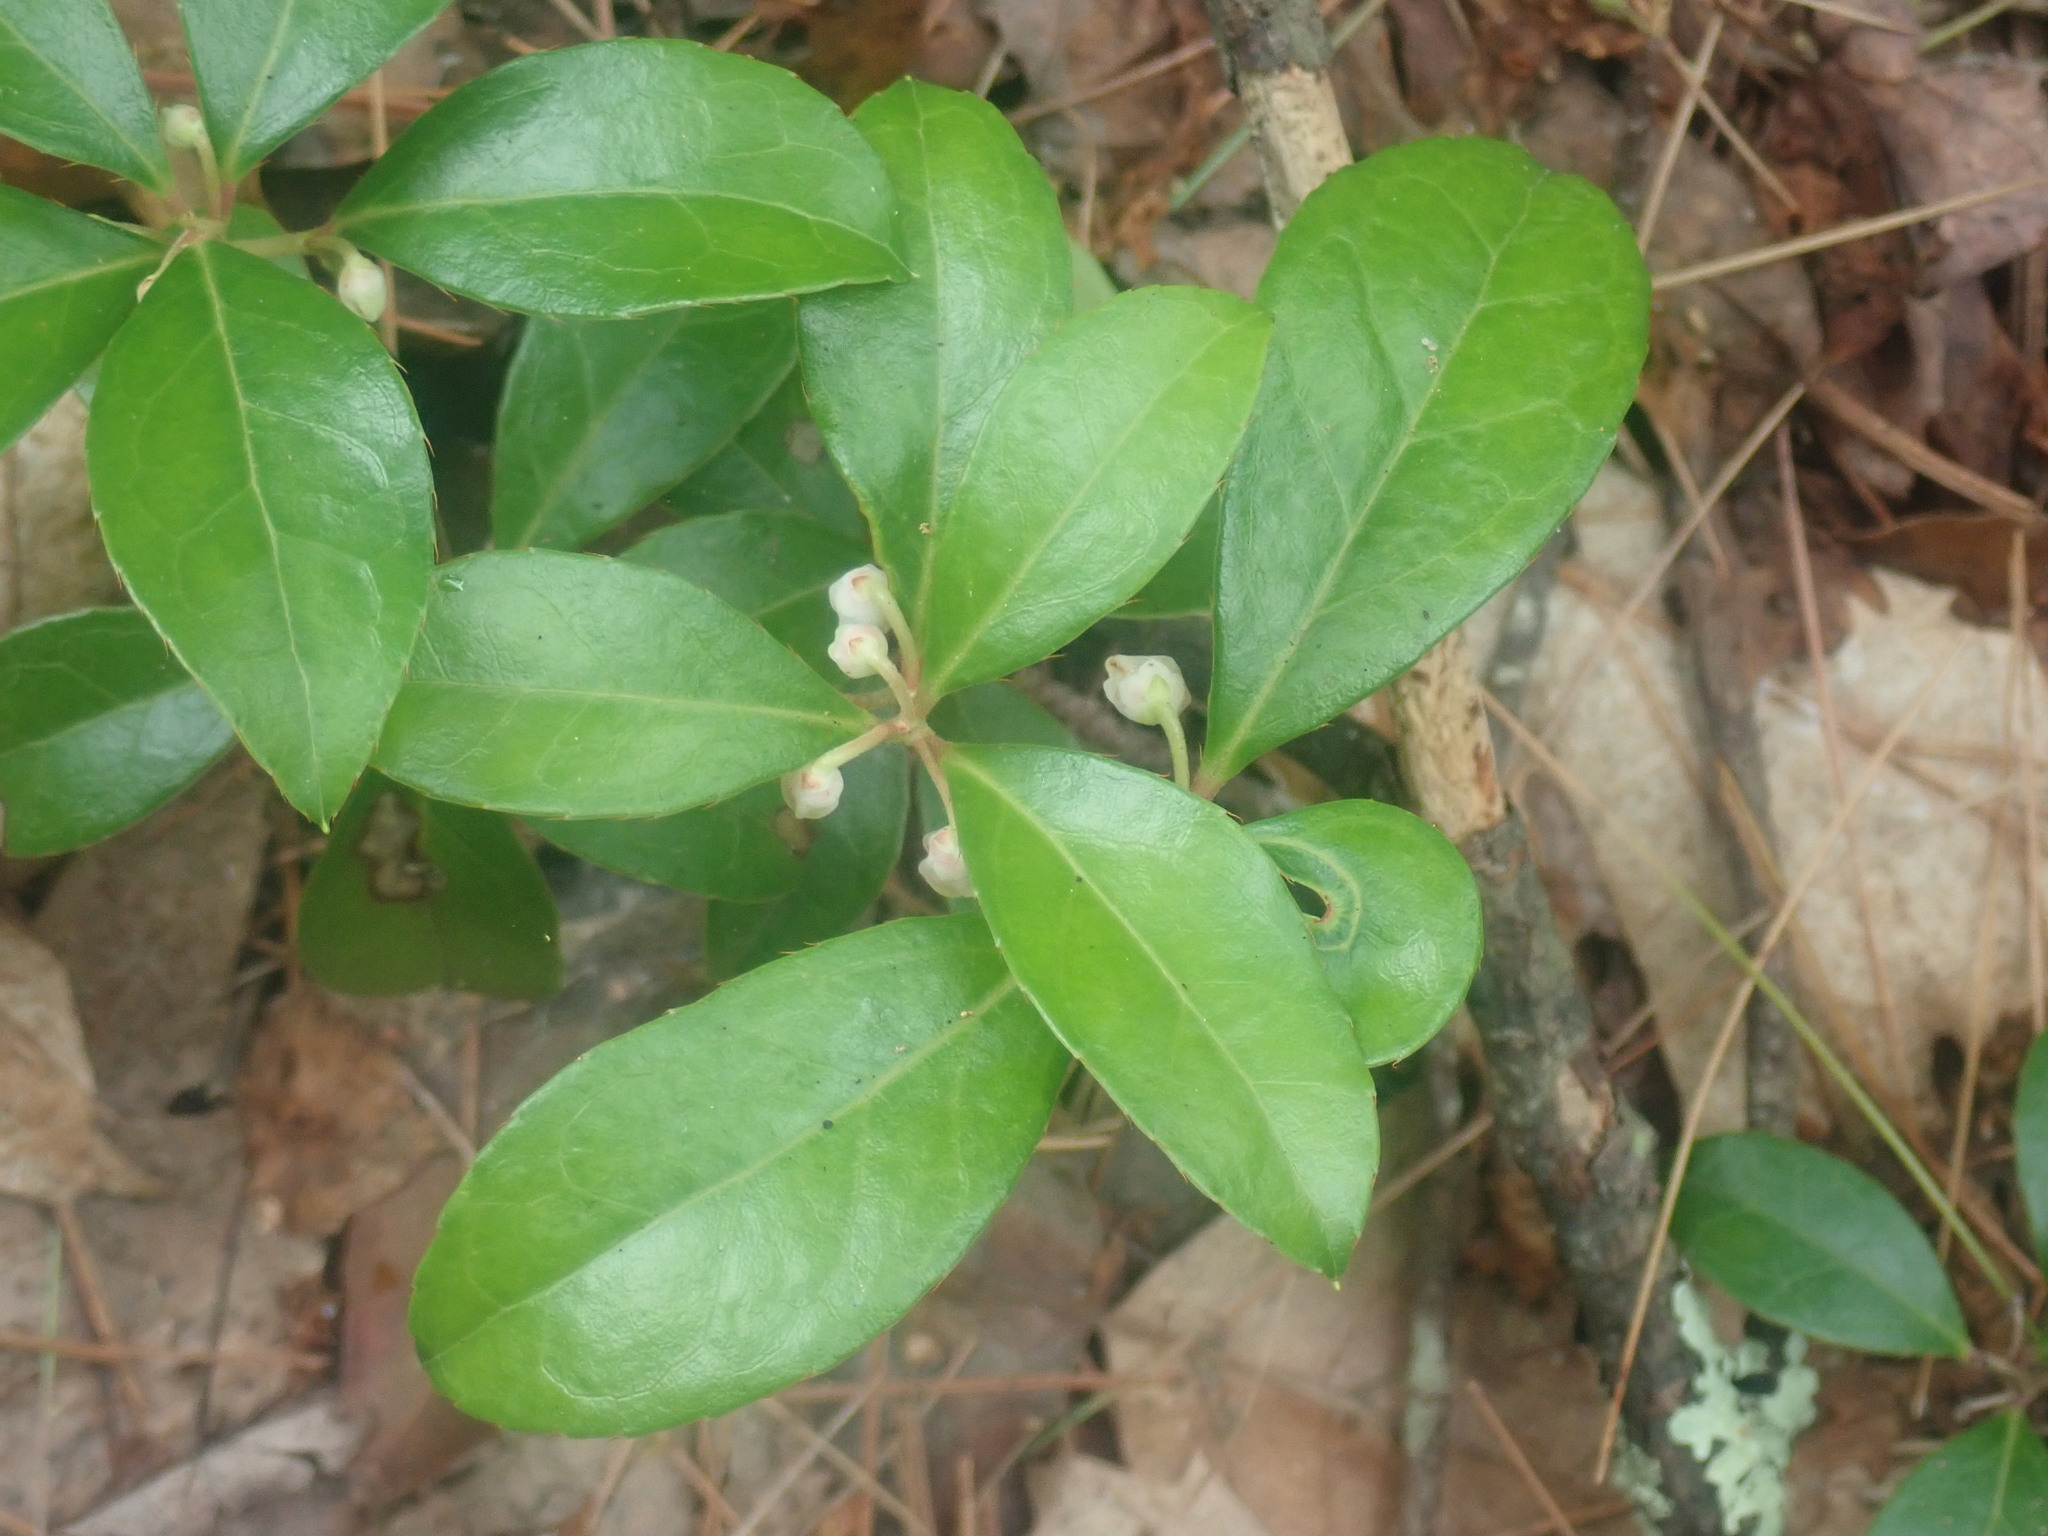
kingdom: Plantae
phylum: Tracheophyta
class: Magnoliopsida
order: Ericales
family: Ericaceae
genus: Gaultheria
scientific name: Gaultheria procumbens
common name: Checkerberry
